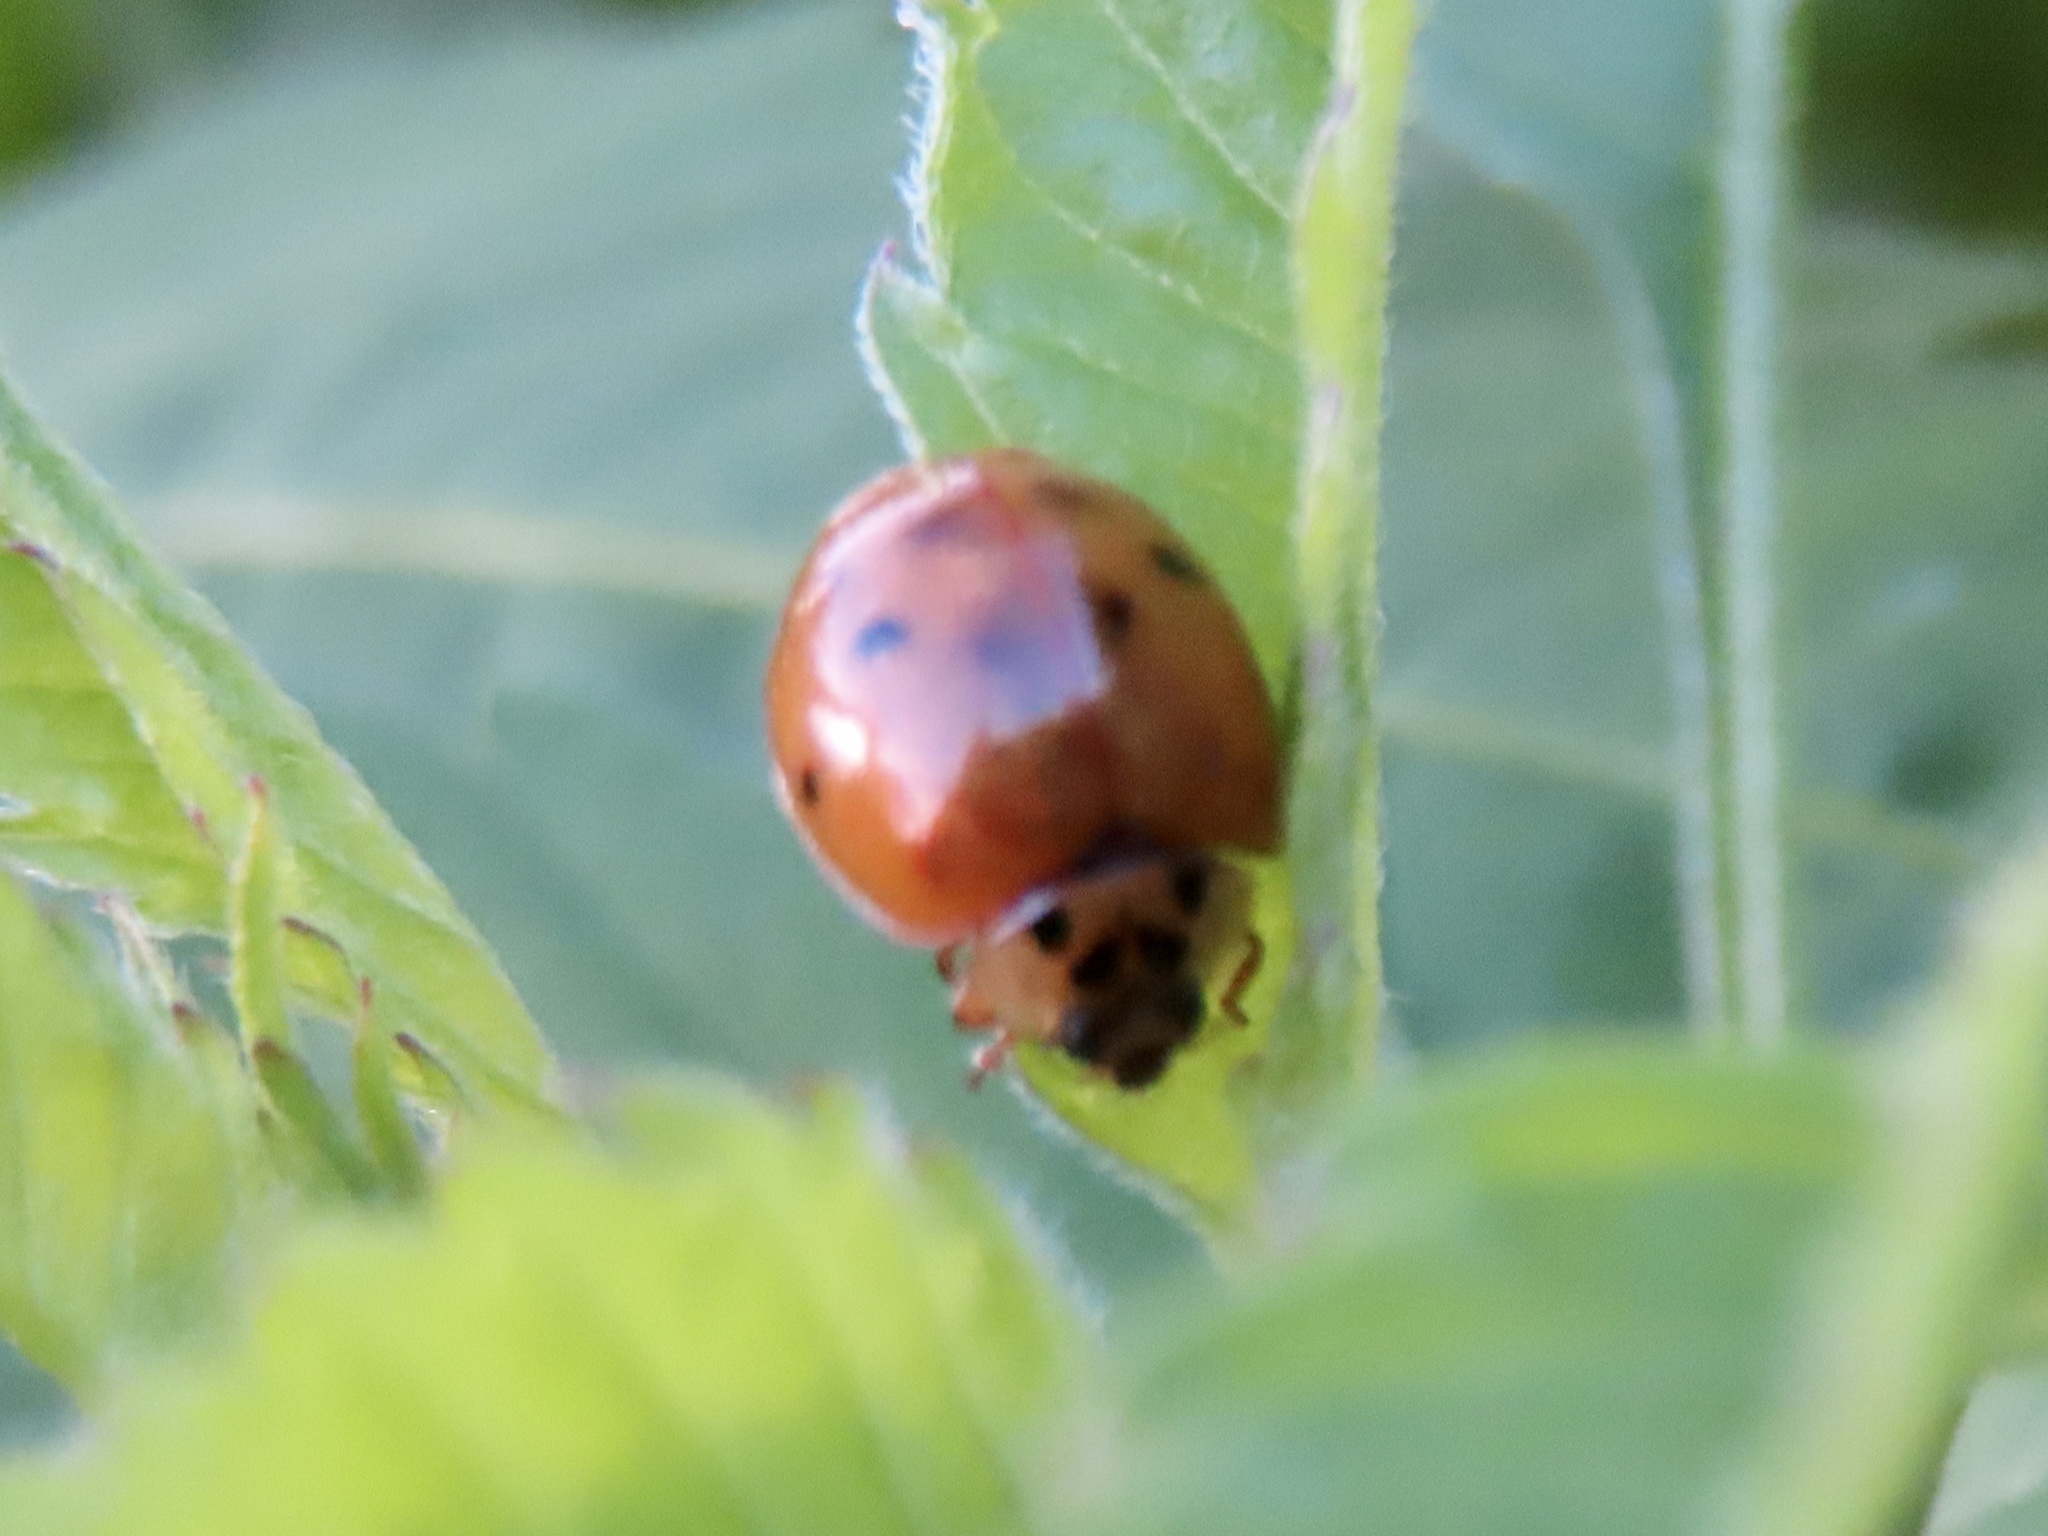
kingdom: Animalia
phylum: Arthropoda
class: Insecta
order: Coleoptera
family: Coccinellidae
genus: Harmonia
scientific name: Harmonia axyridis
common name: Harlequin ladybird
